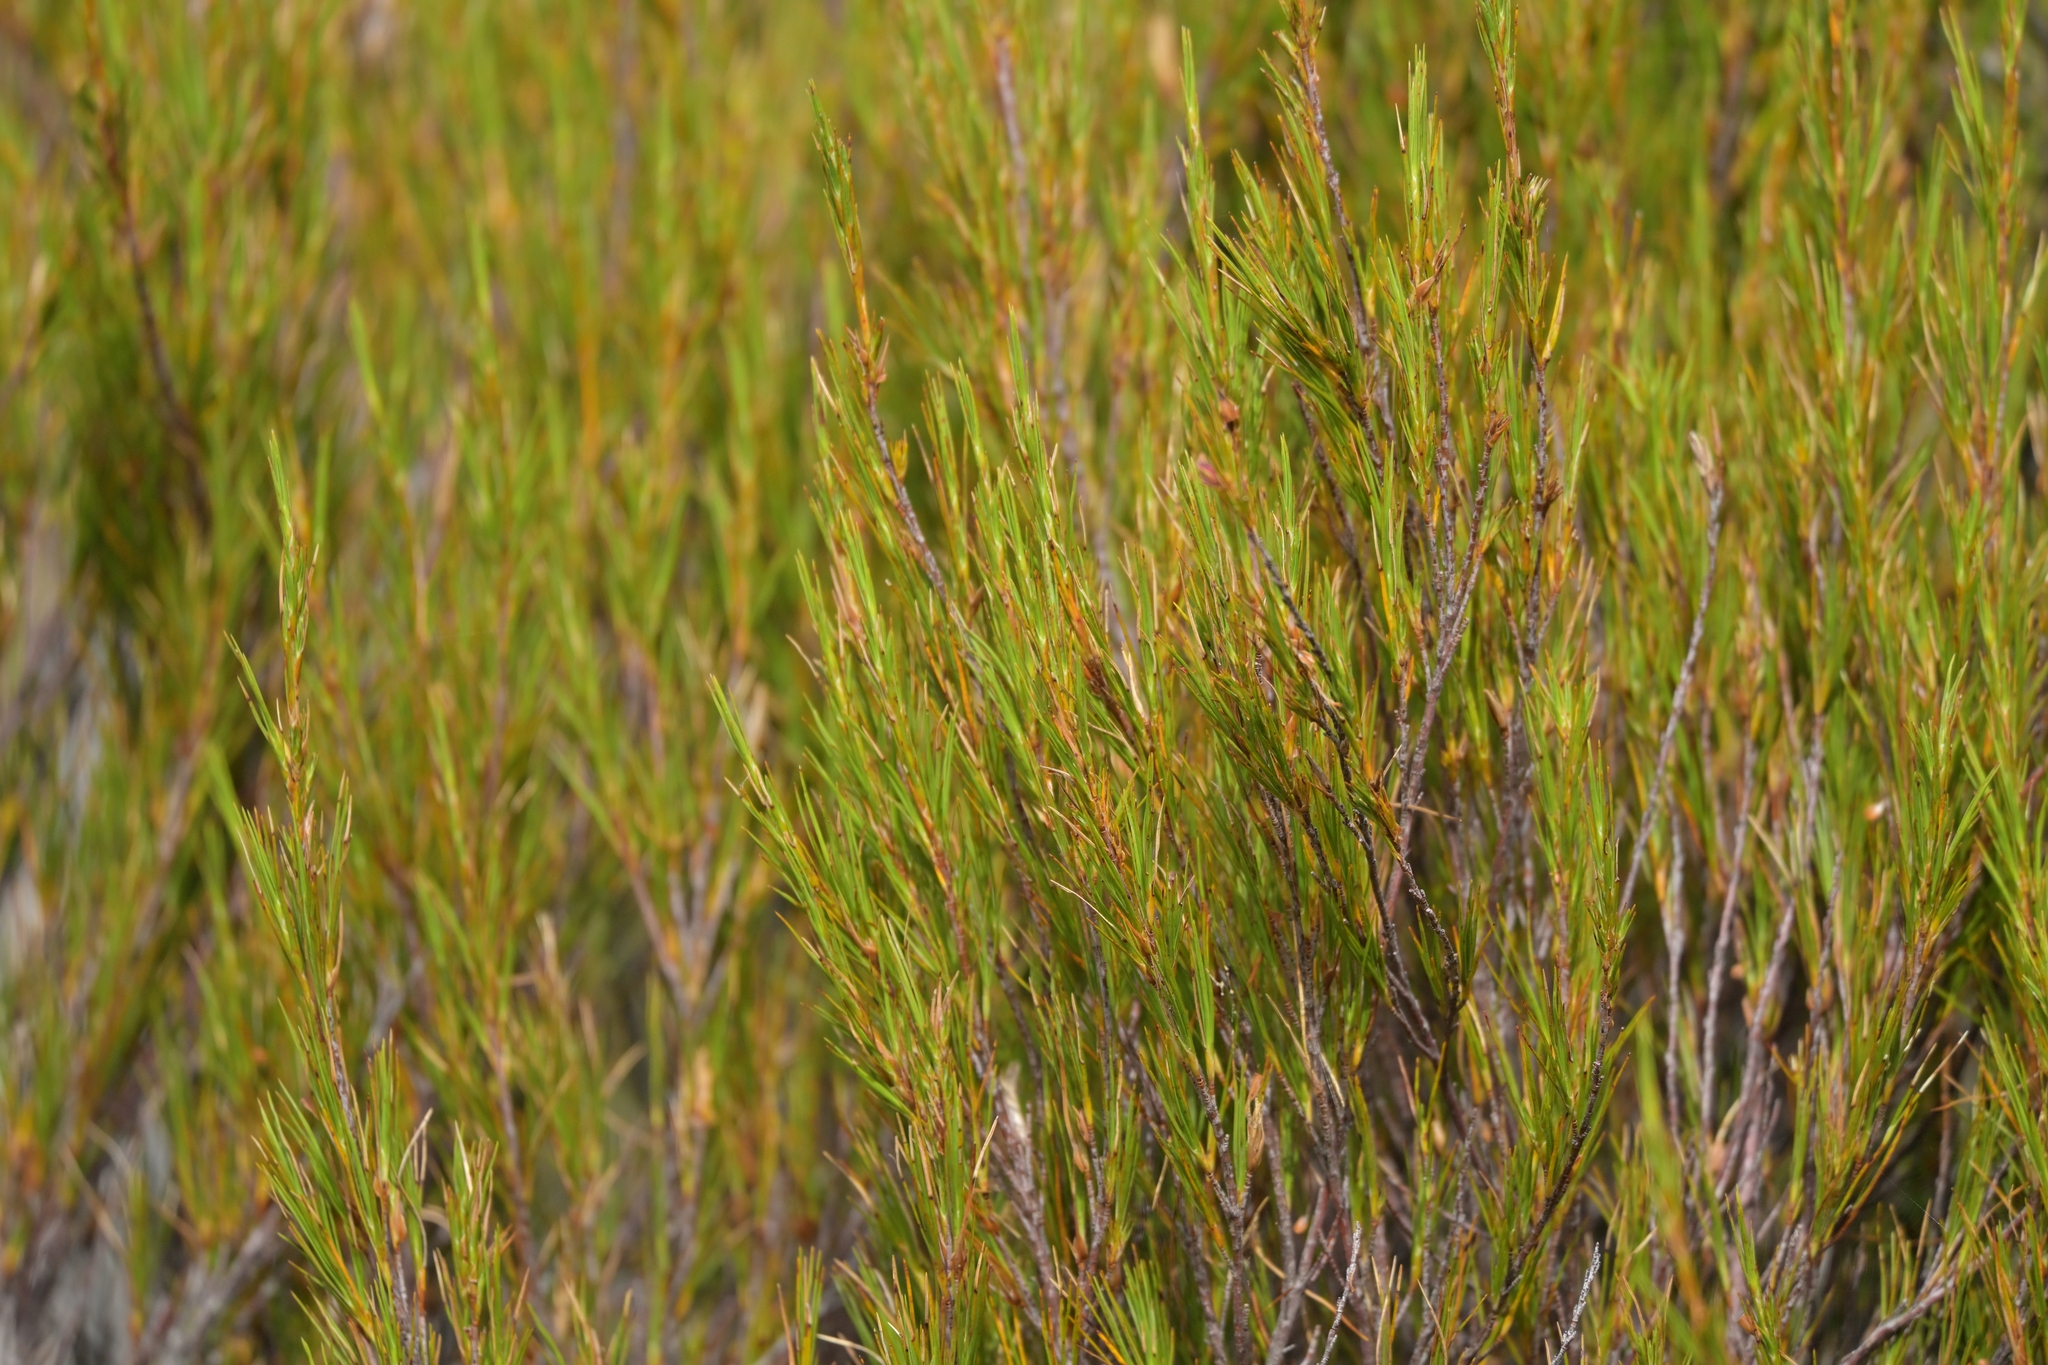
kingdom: Plantae
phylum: Tracheophyta
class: Magnoliopsida
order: Ericales
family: Ericaceae
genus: Dracophyllum
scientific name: Dracophyllum longifolium
